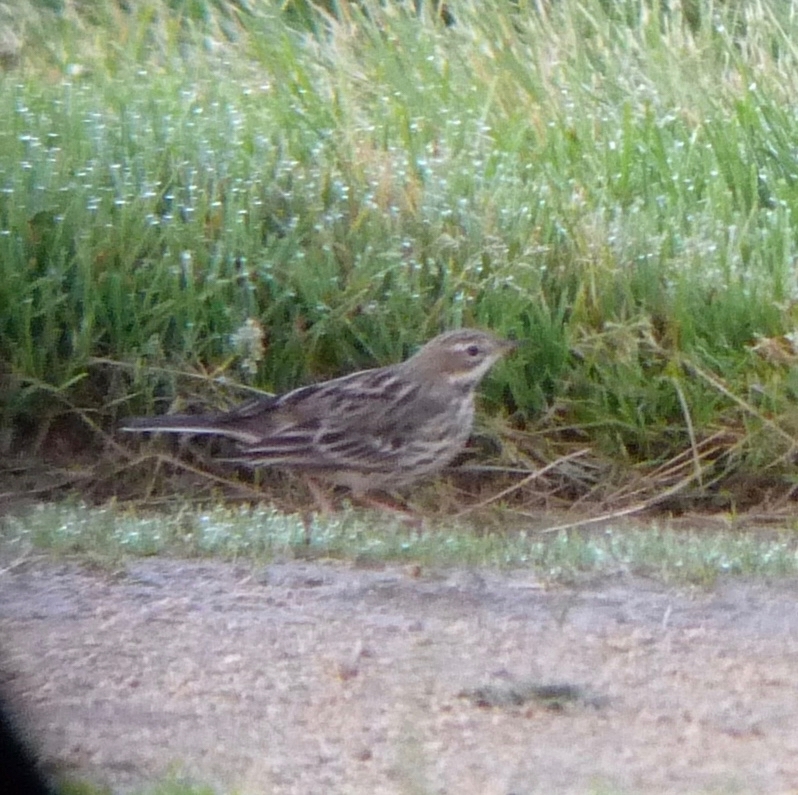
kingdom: Animalia
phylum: Chordata
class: Aves
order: Passeriformes
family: Motacillidae
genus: Anthus
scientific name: Anthus cervinus
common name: Red-throated pipit
